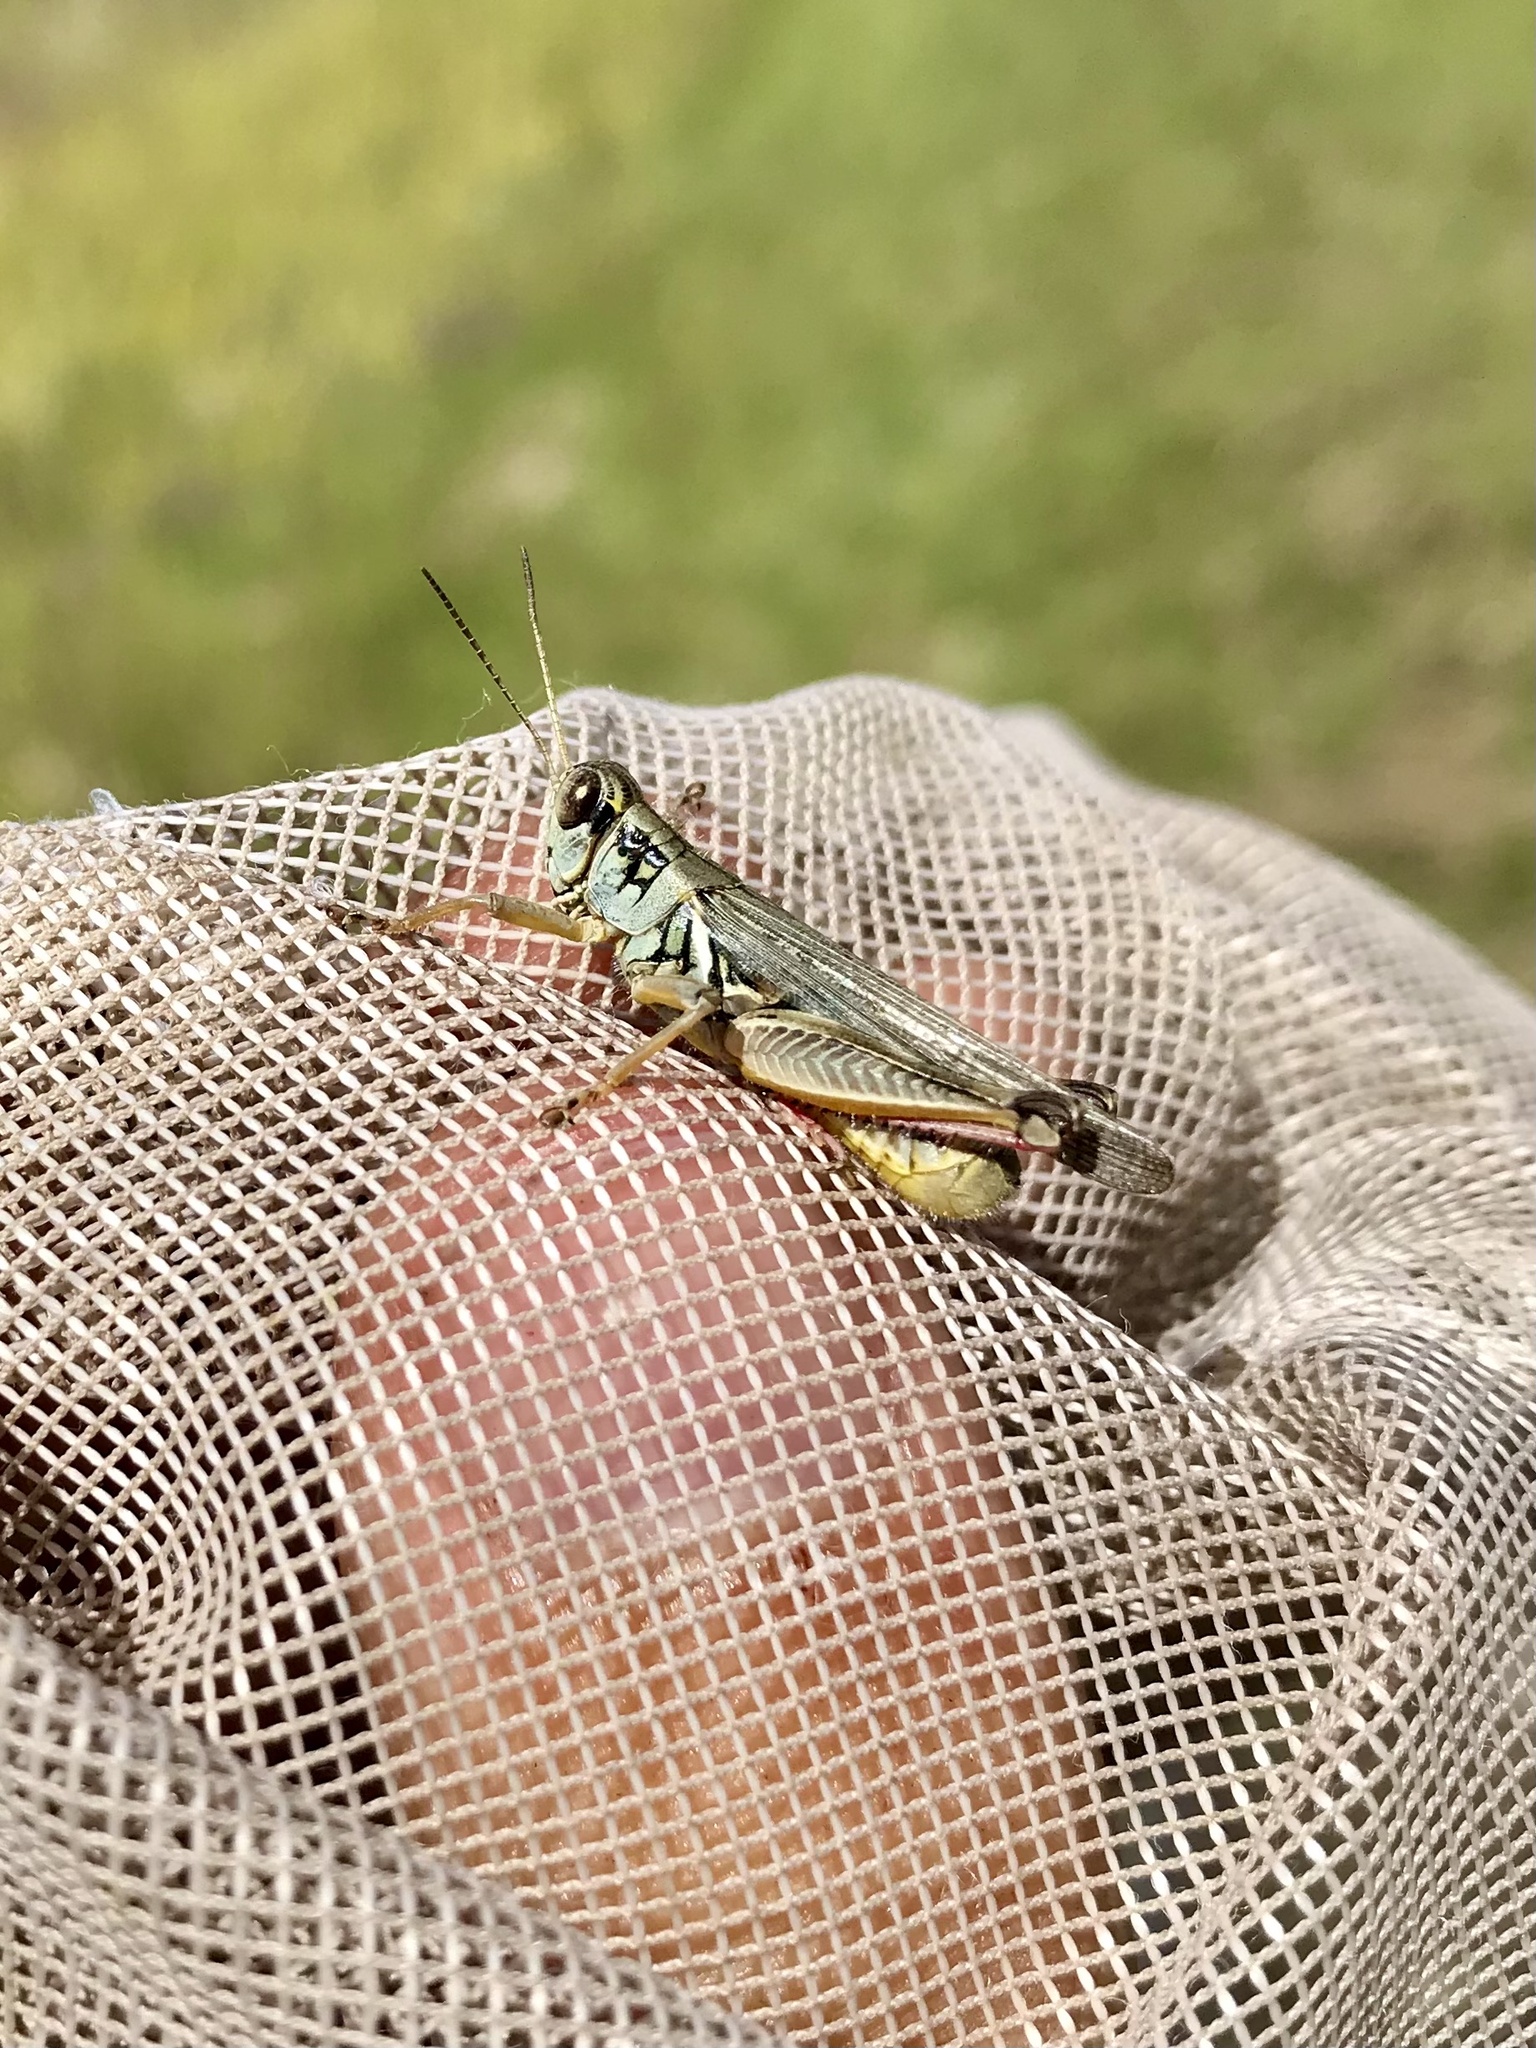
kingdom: Animalia
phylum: Arthropoda
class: Insecta
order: Orthoptera
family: Acrididae
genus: Melanoplus
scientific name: Melanoplus femurrubrum
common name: Red-legged grasshopper
